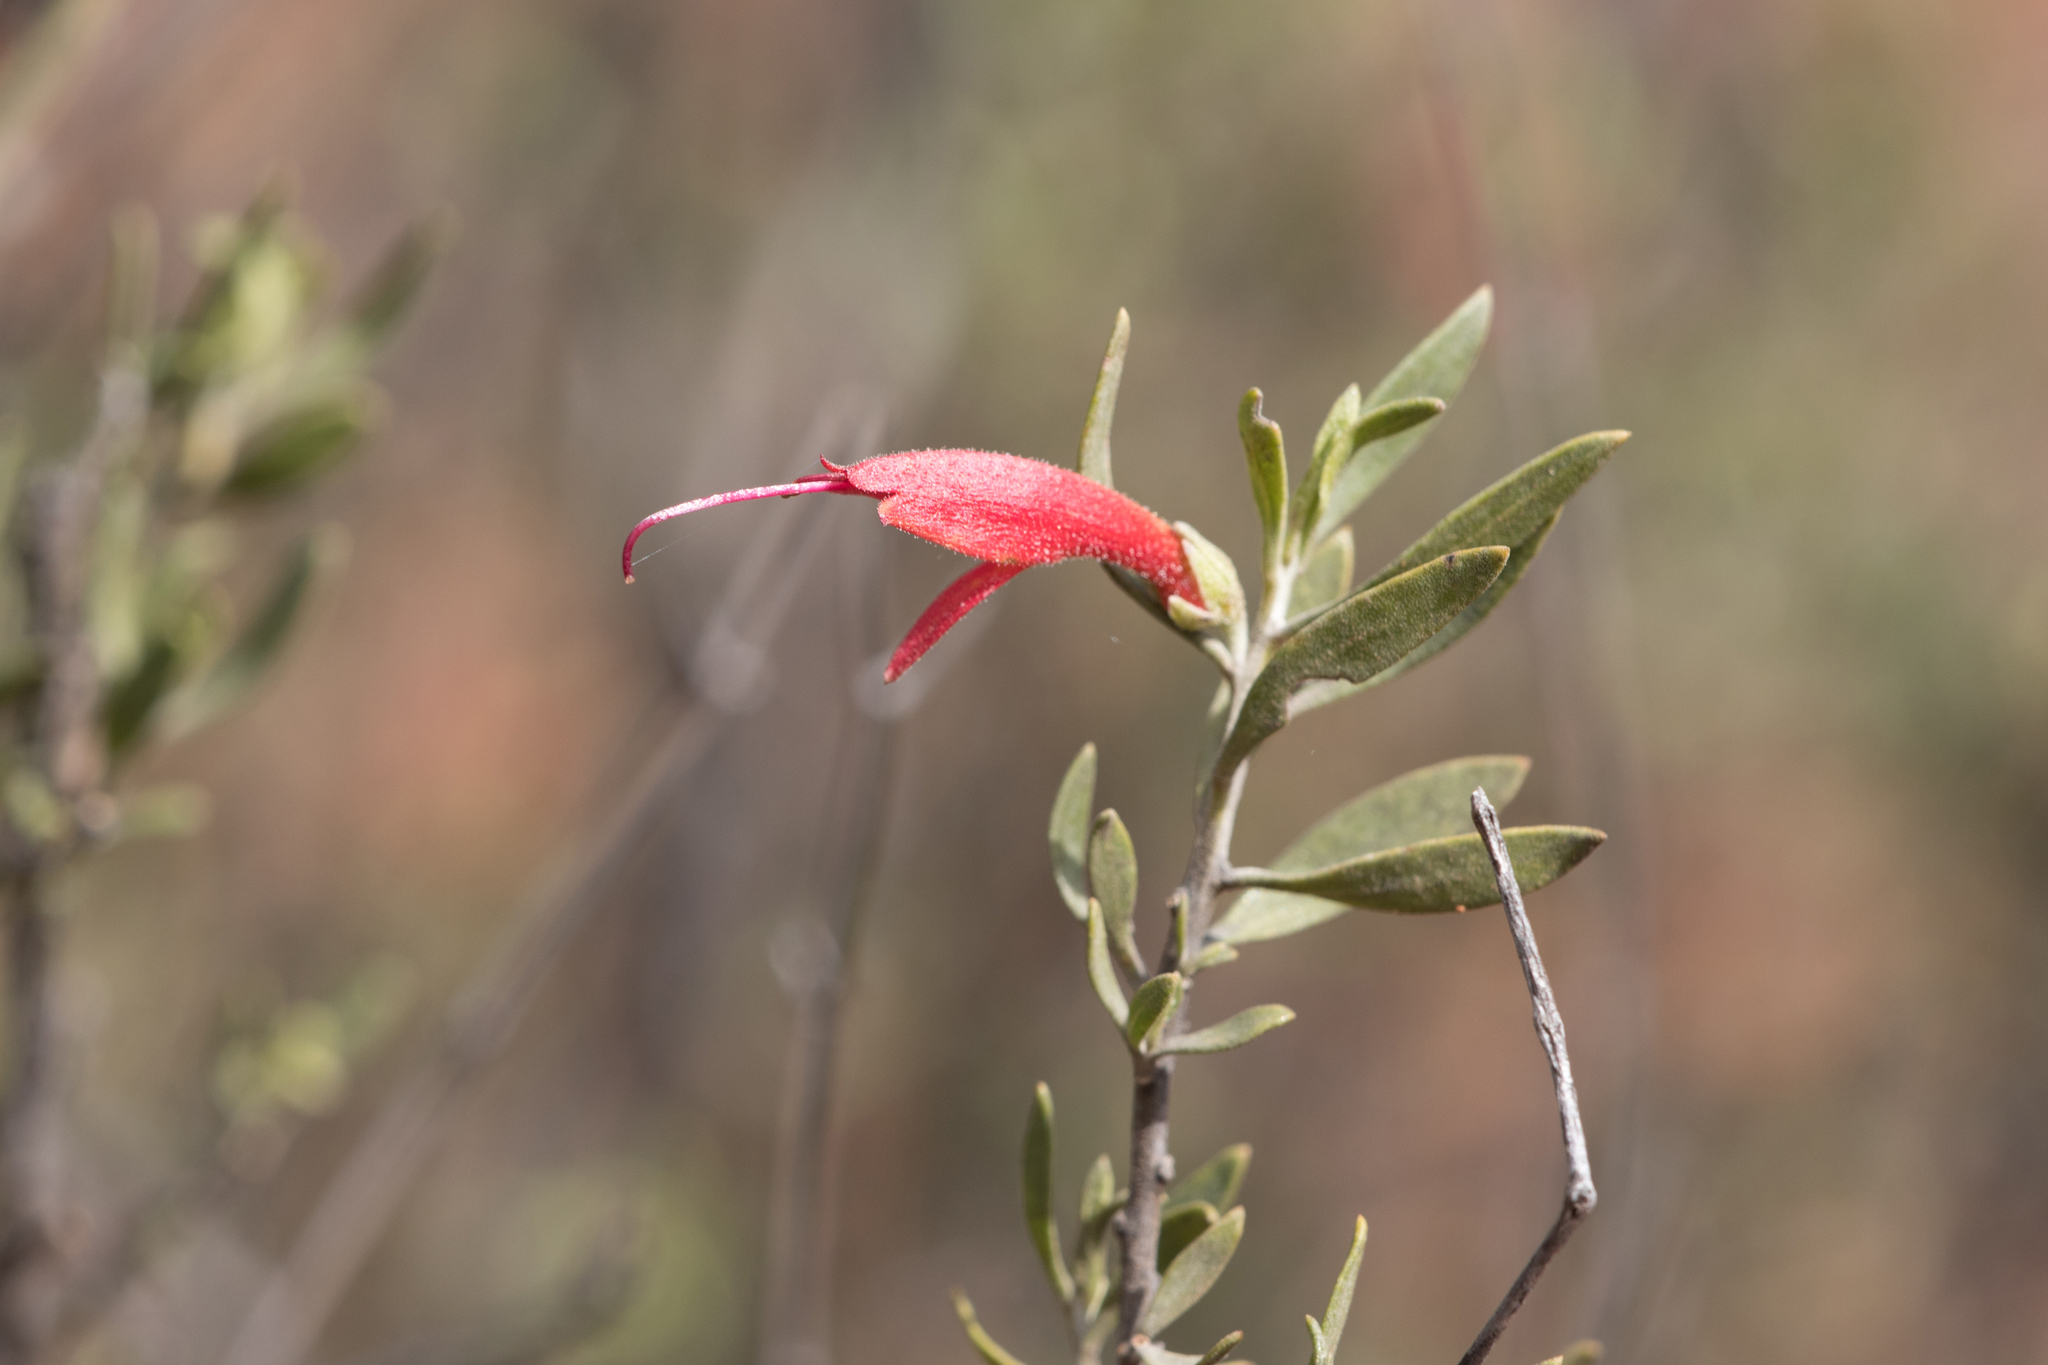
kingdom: Plantae
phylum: Tracheophyta
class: Magnoliopsida
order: Lamiales
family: Scrophulariaceae
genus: Eremophila
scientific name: Eremophila glabra
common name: Black-fuchsia
